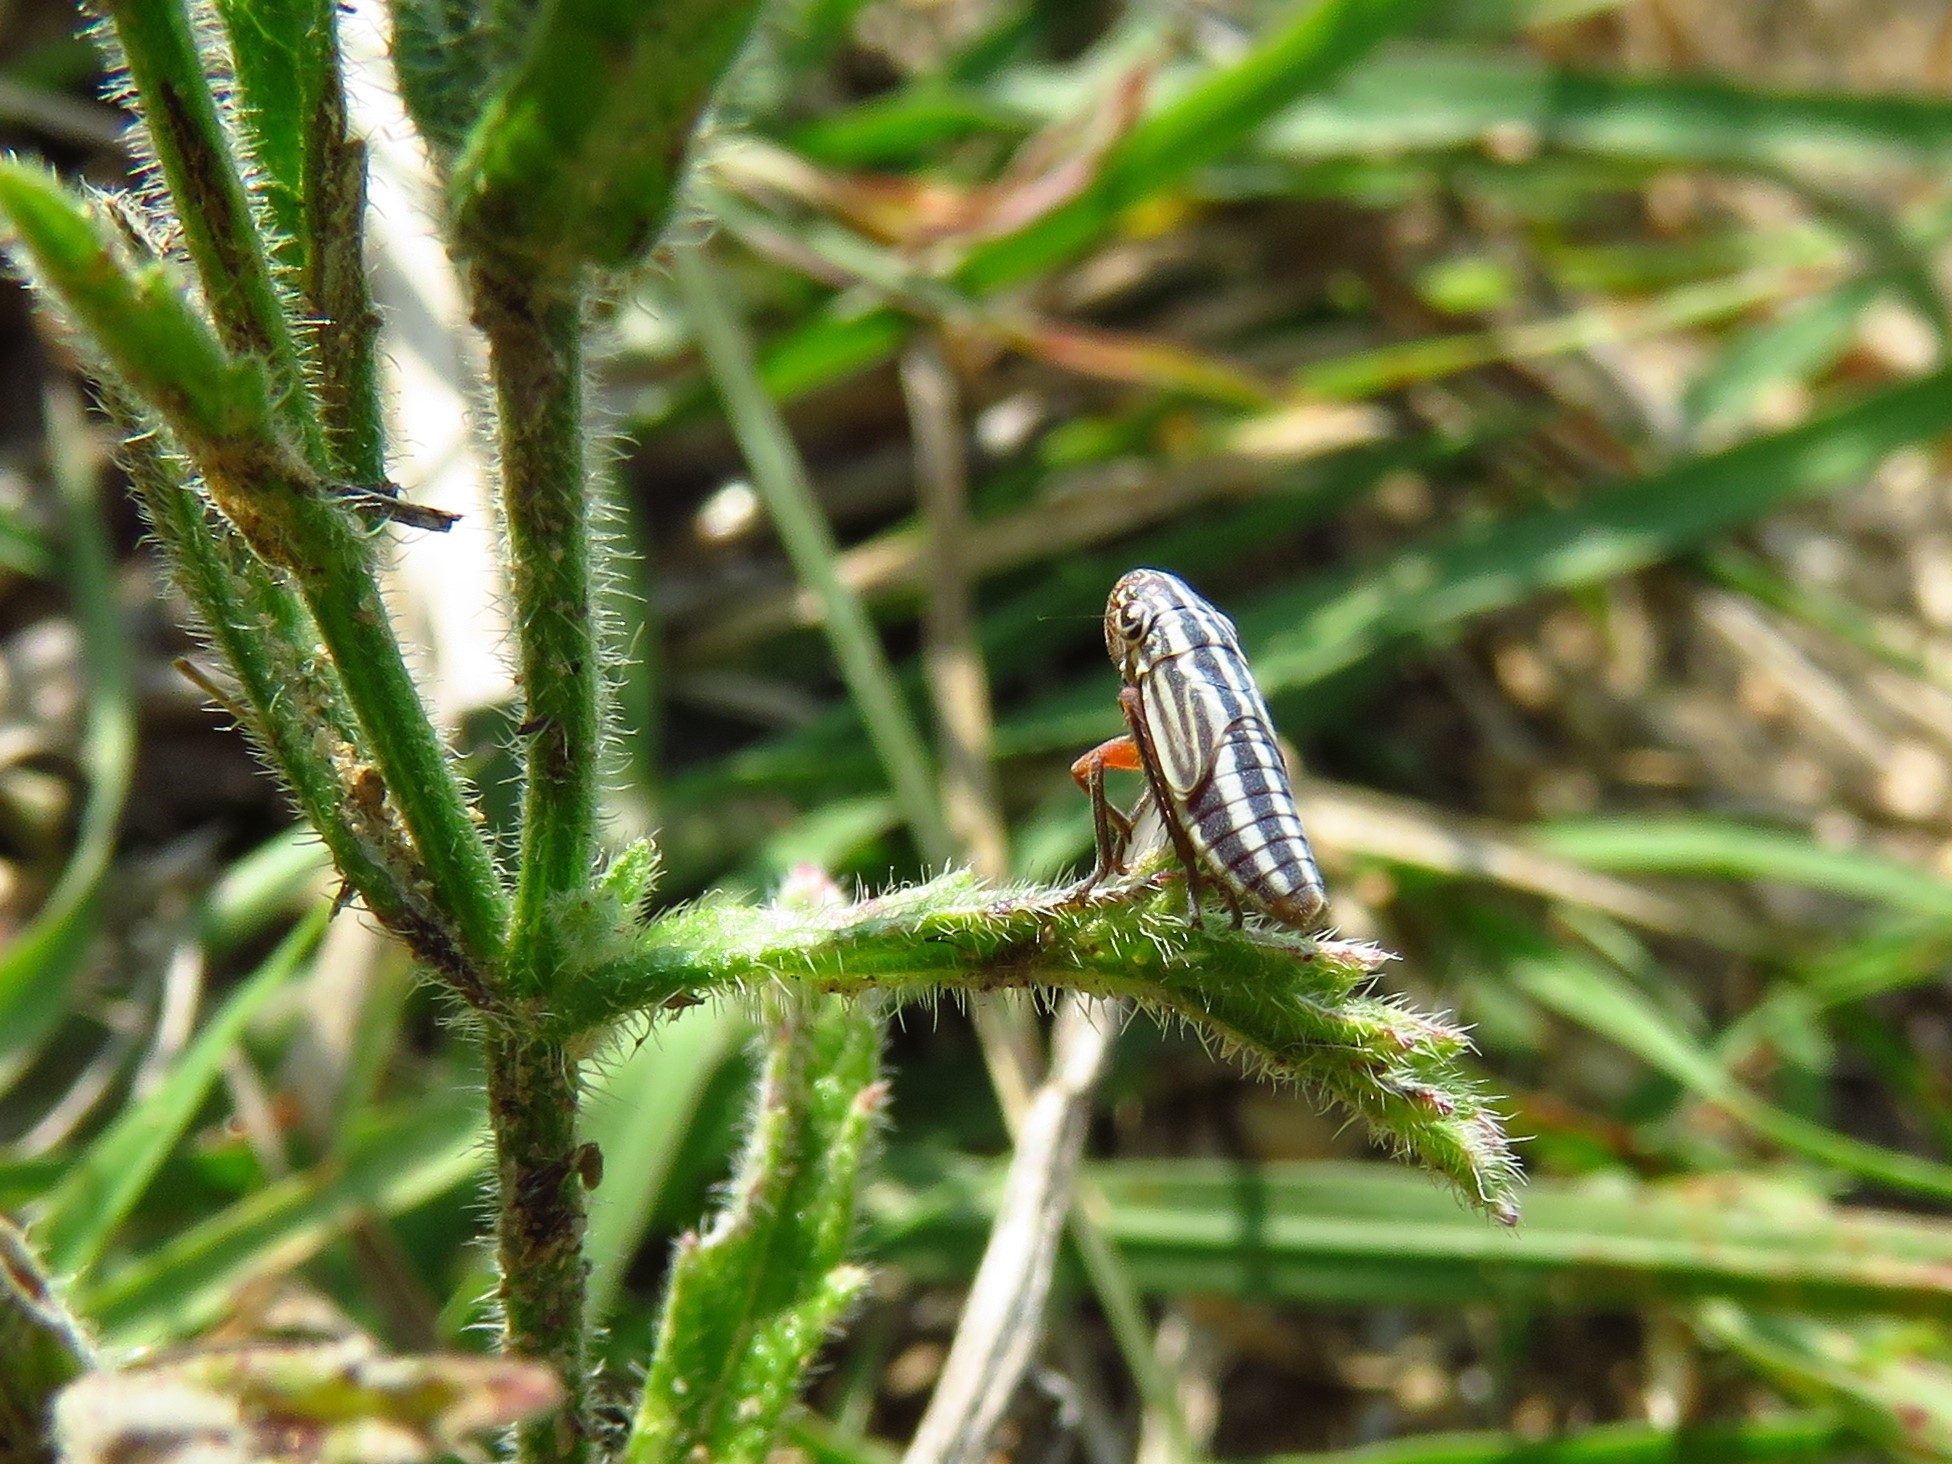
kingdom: Animalia
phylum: Arthropoda
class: Insecta
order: Hemiptera
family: Cicadellidae
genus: Cuerna
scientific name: Cuerna costalis
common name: Lateral-lined sharpshooter
